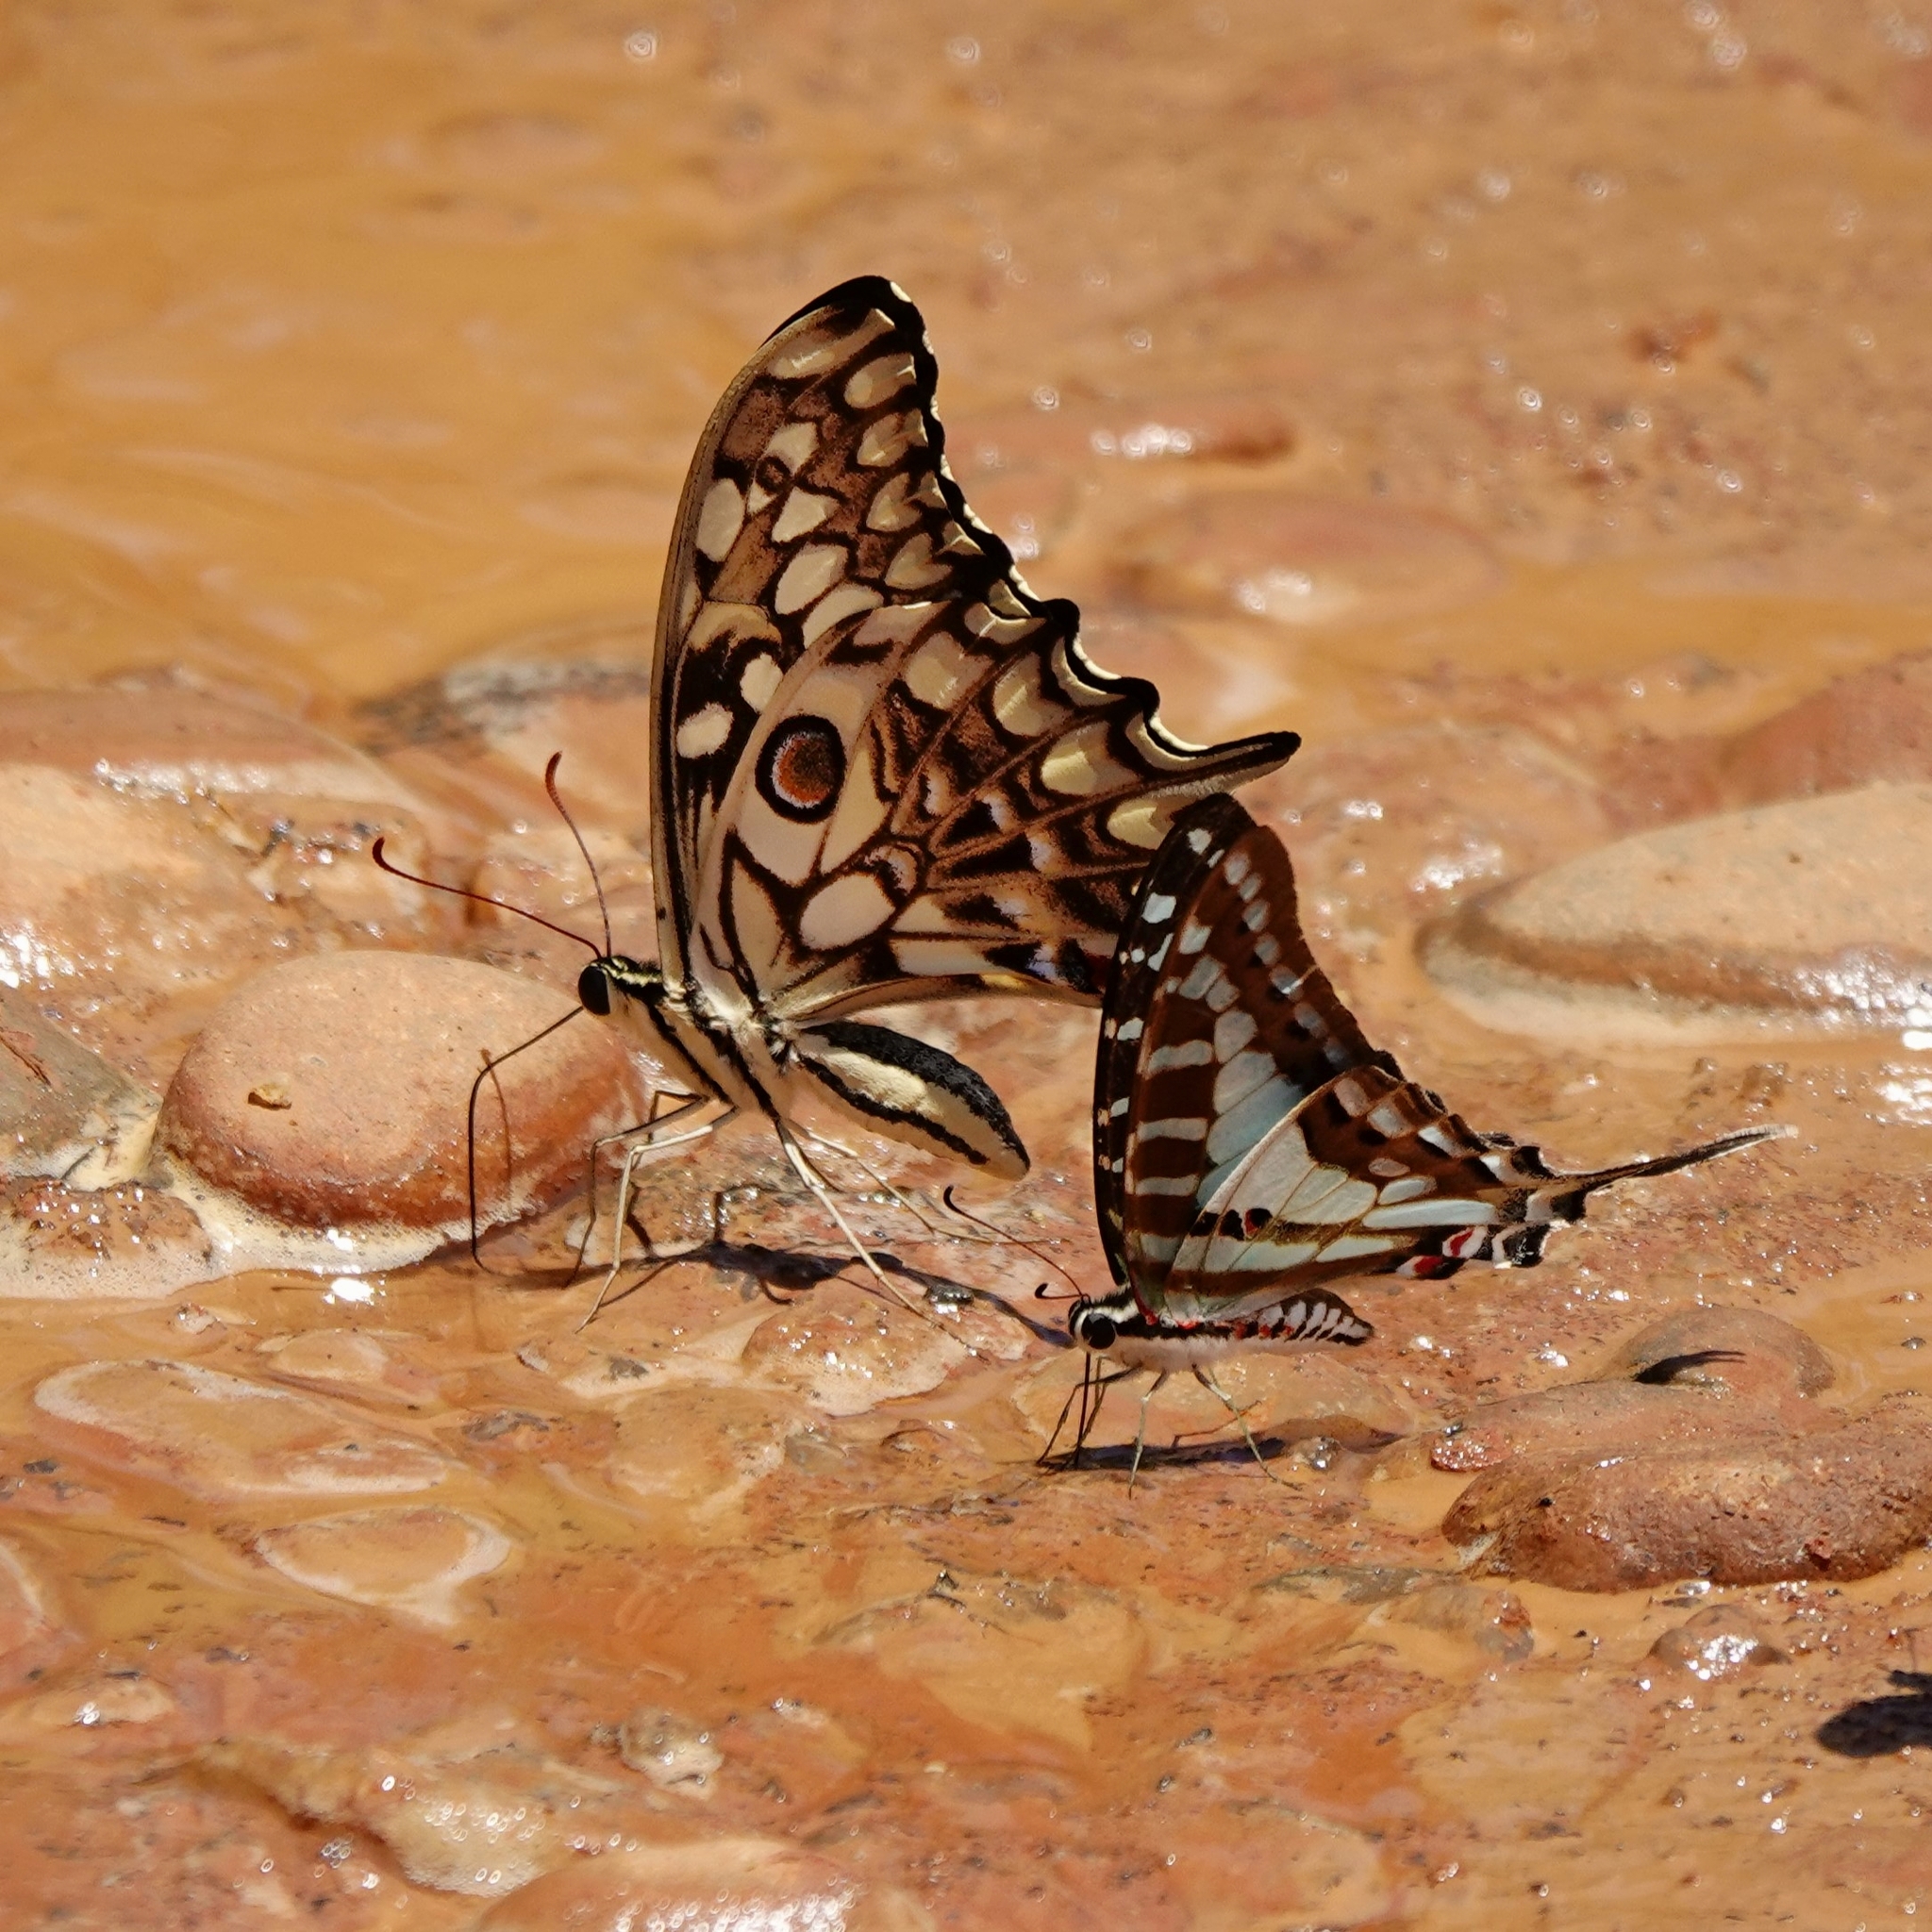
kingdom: Animalia
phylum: Arthropoda
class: Insecta
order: Lepidoptera
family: Papilionidae
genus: Papilio
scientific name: Papilio morondavana
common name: Madagascan emperor swallowtail
